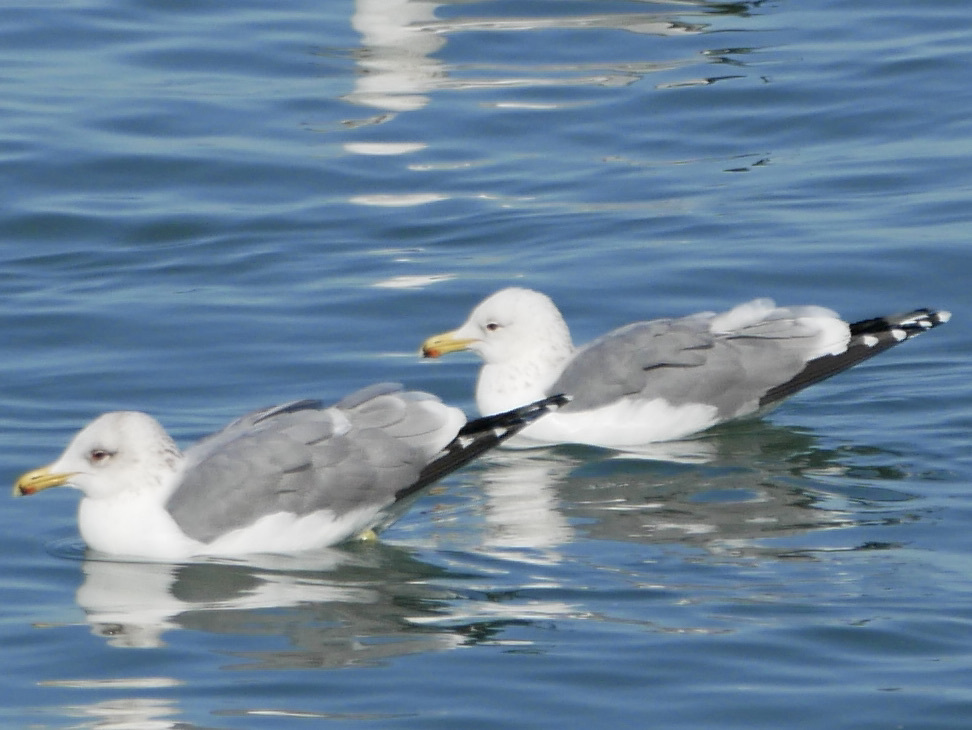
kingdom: Animalia
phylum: Chordata
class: Aves
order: Charadriiformes
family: Laridae
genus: Larus
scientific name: Larus californicus
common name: California gull
